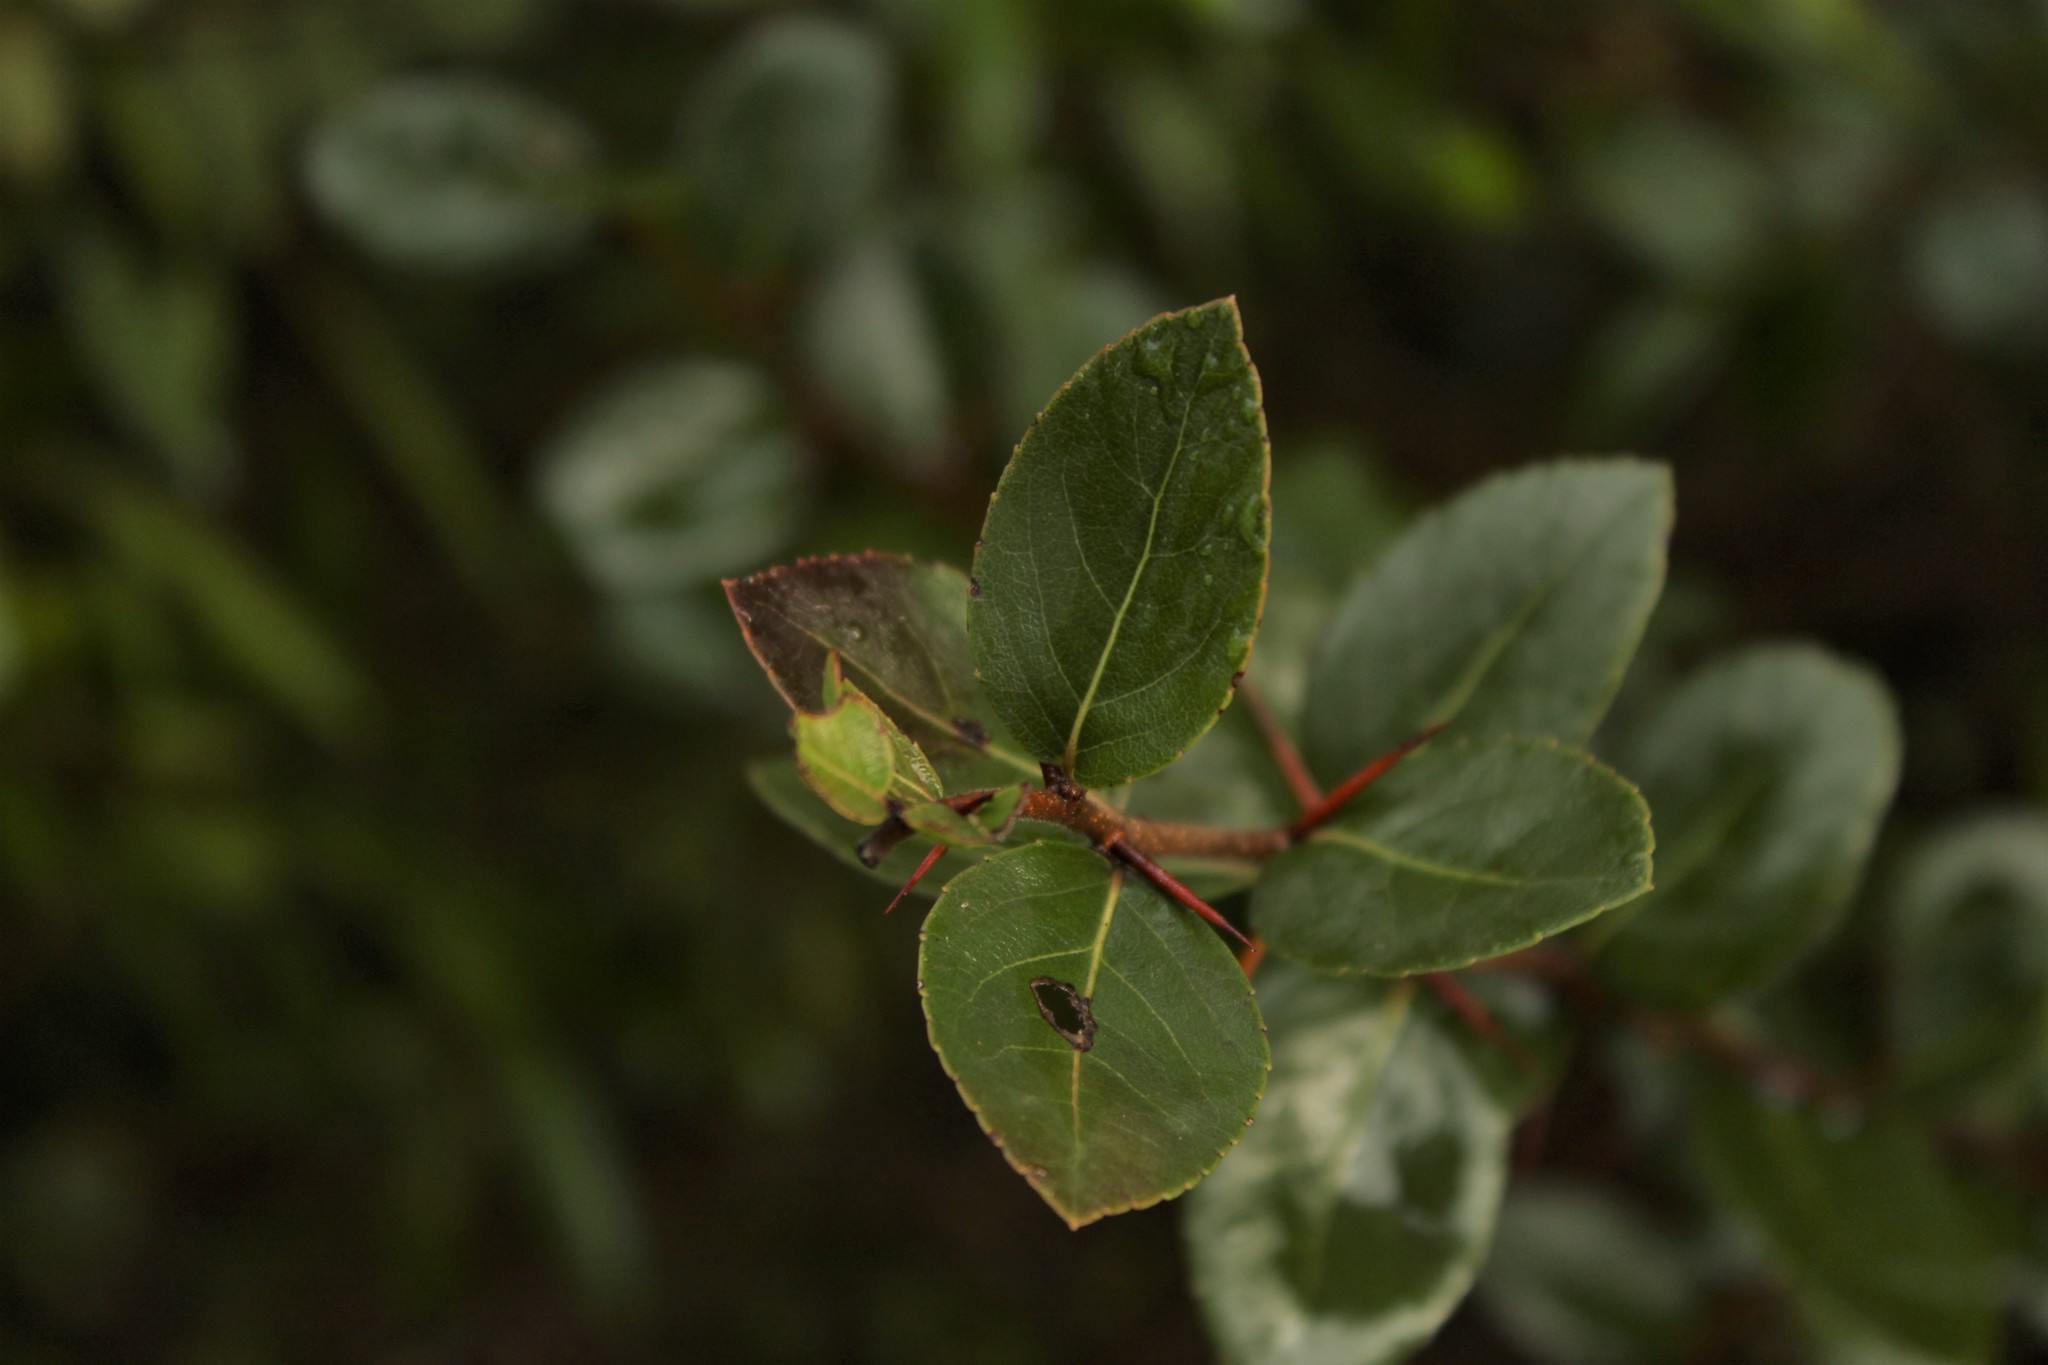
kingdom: Plantae
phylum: Tracheophyta
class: Magnoliopsida
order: Malpighiales
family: Salicaceae
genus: Xylosma
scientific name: Xylosma spiculifera
